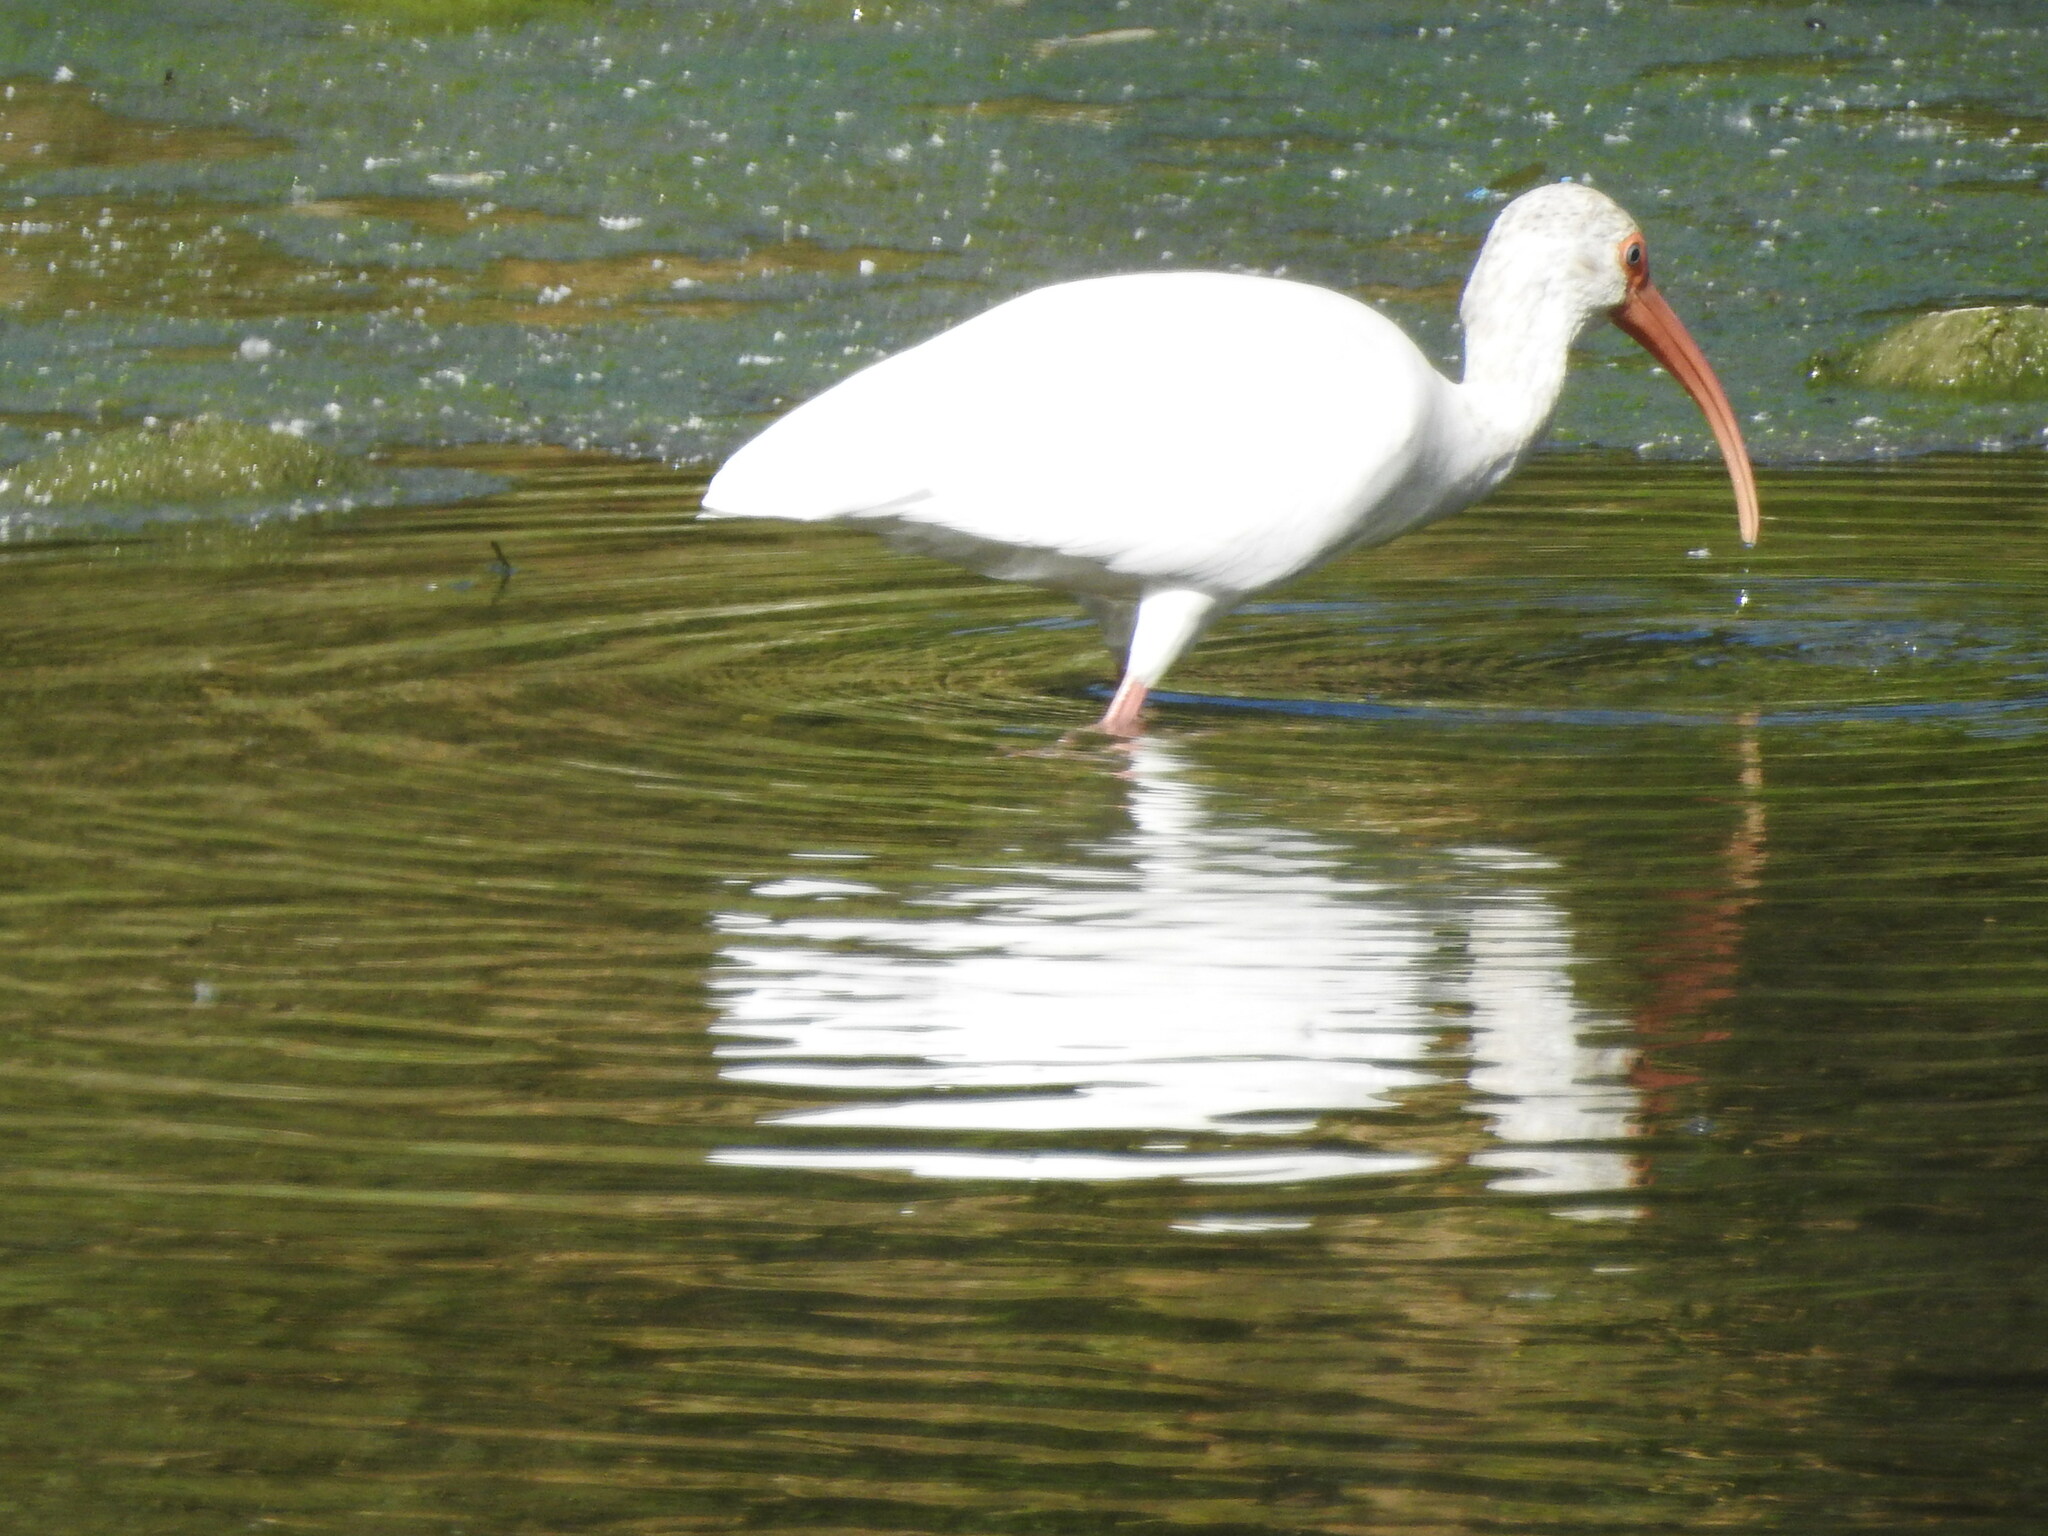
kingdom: Animalia
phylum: Chordata
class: Aves
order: Pelecaniformes
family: Threskiornithidae
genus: Eudocimus
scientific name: Eudocimus albus
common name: White ibis
